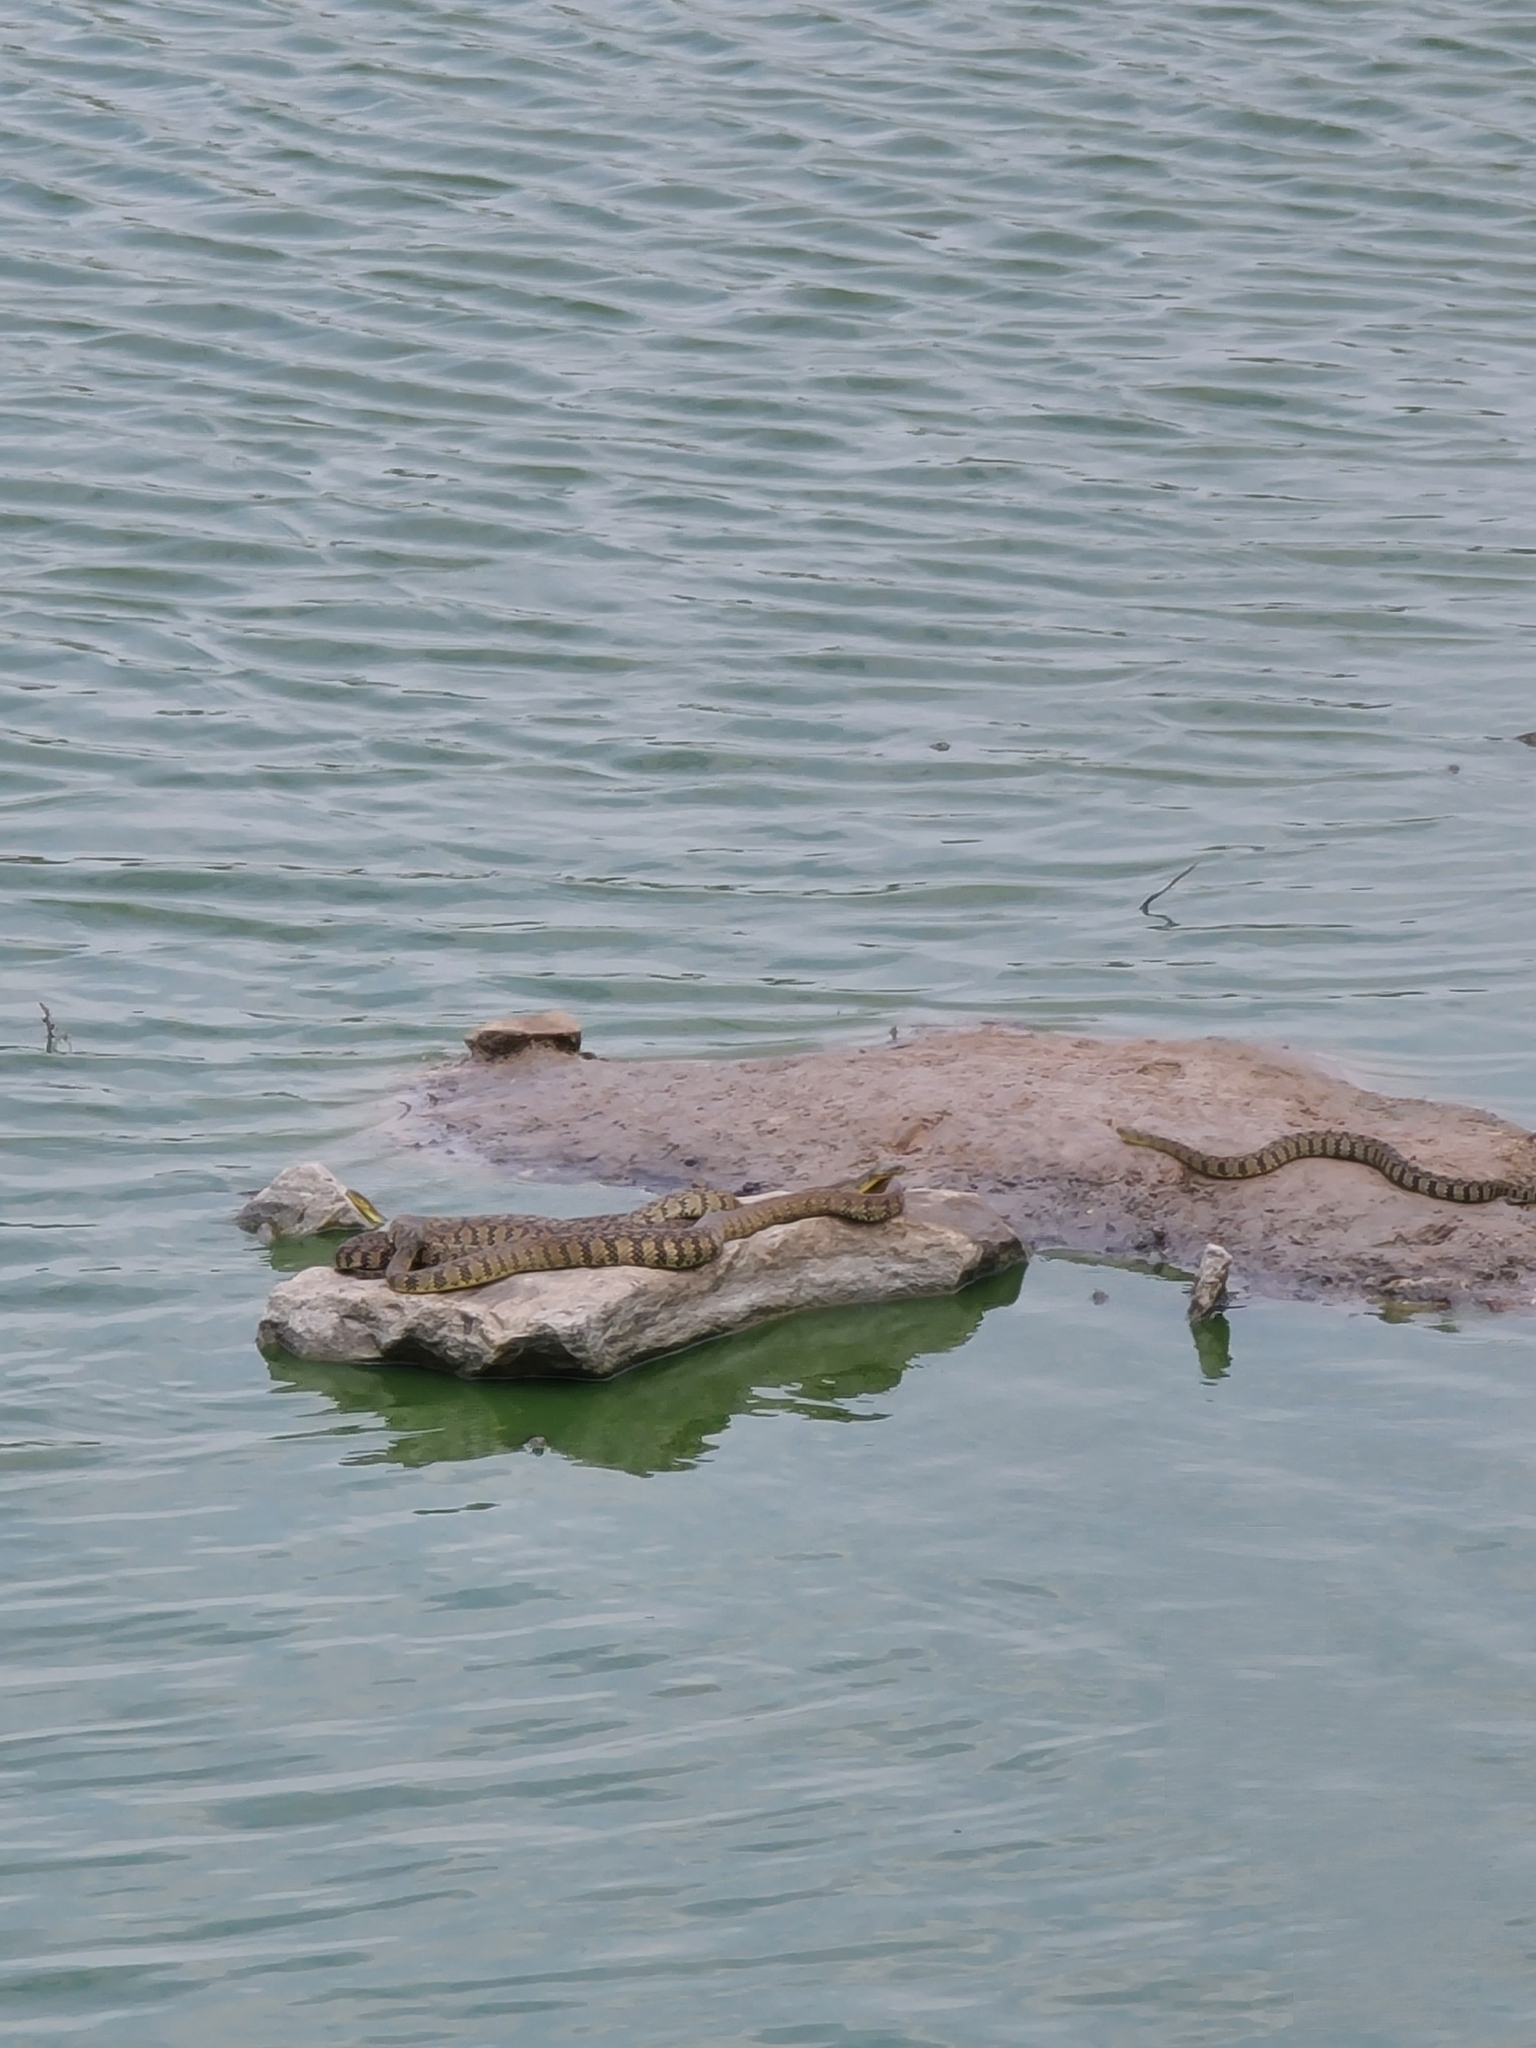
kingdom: Animalia
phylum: Chordata
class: Squamata
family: Colubridae
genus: Nerodia
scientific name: Nerodia rhombifer
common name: Diamondback water snake
